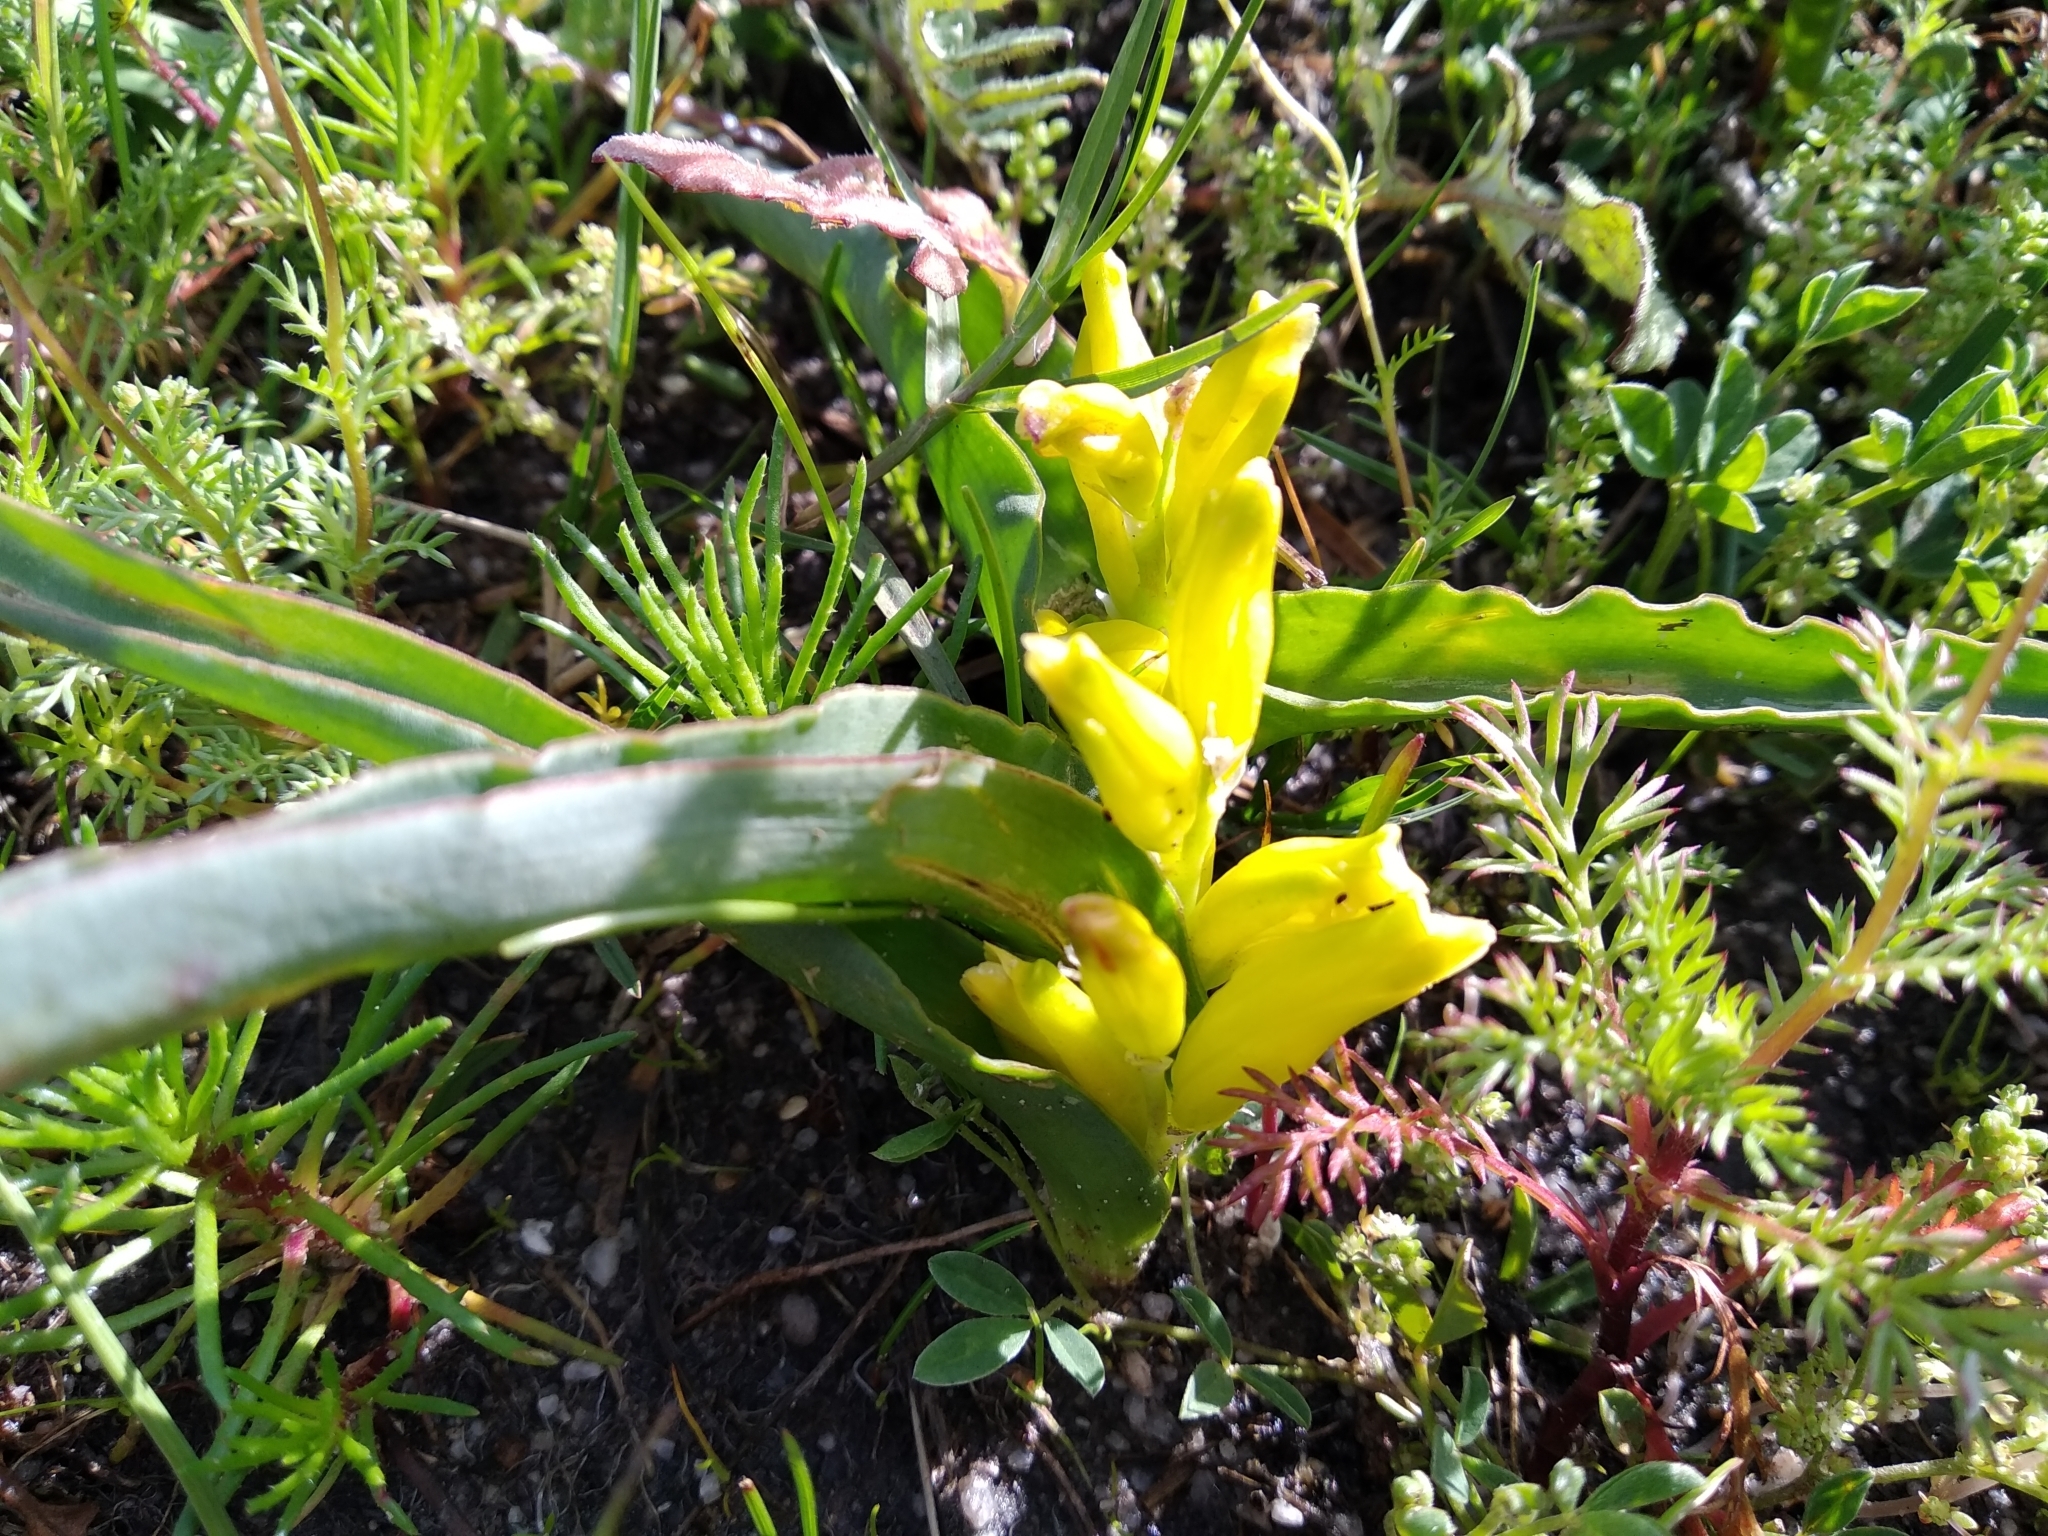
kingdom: Plantae
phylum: Tracheophyta
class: Liliopsida
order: Asparagales
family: Asparagaceae
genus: Lachenalia
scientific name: Lachenalia reflexa
